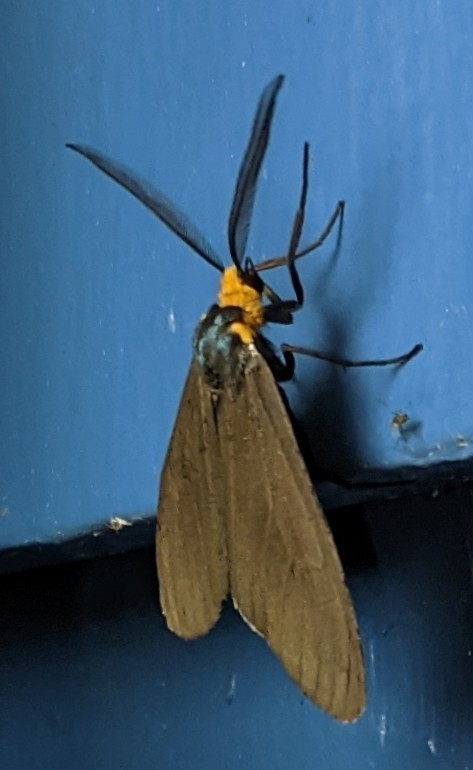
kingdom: Animalia
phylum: Arthropoda
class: Insecta
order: Lepidoptera
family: Erebidae
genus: Ctenucha
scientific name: Ctenucha virginica
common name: Virginia ctenucha moth
